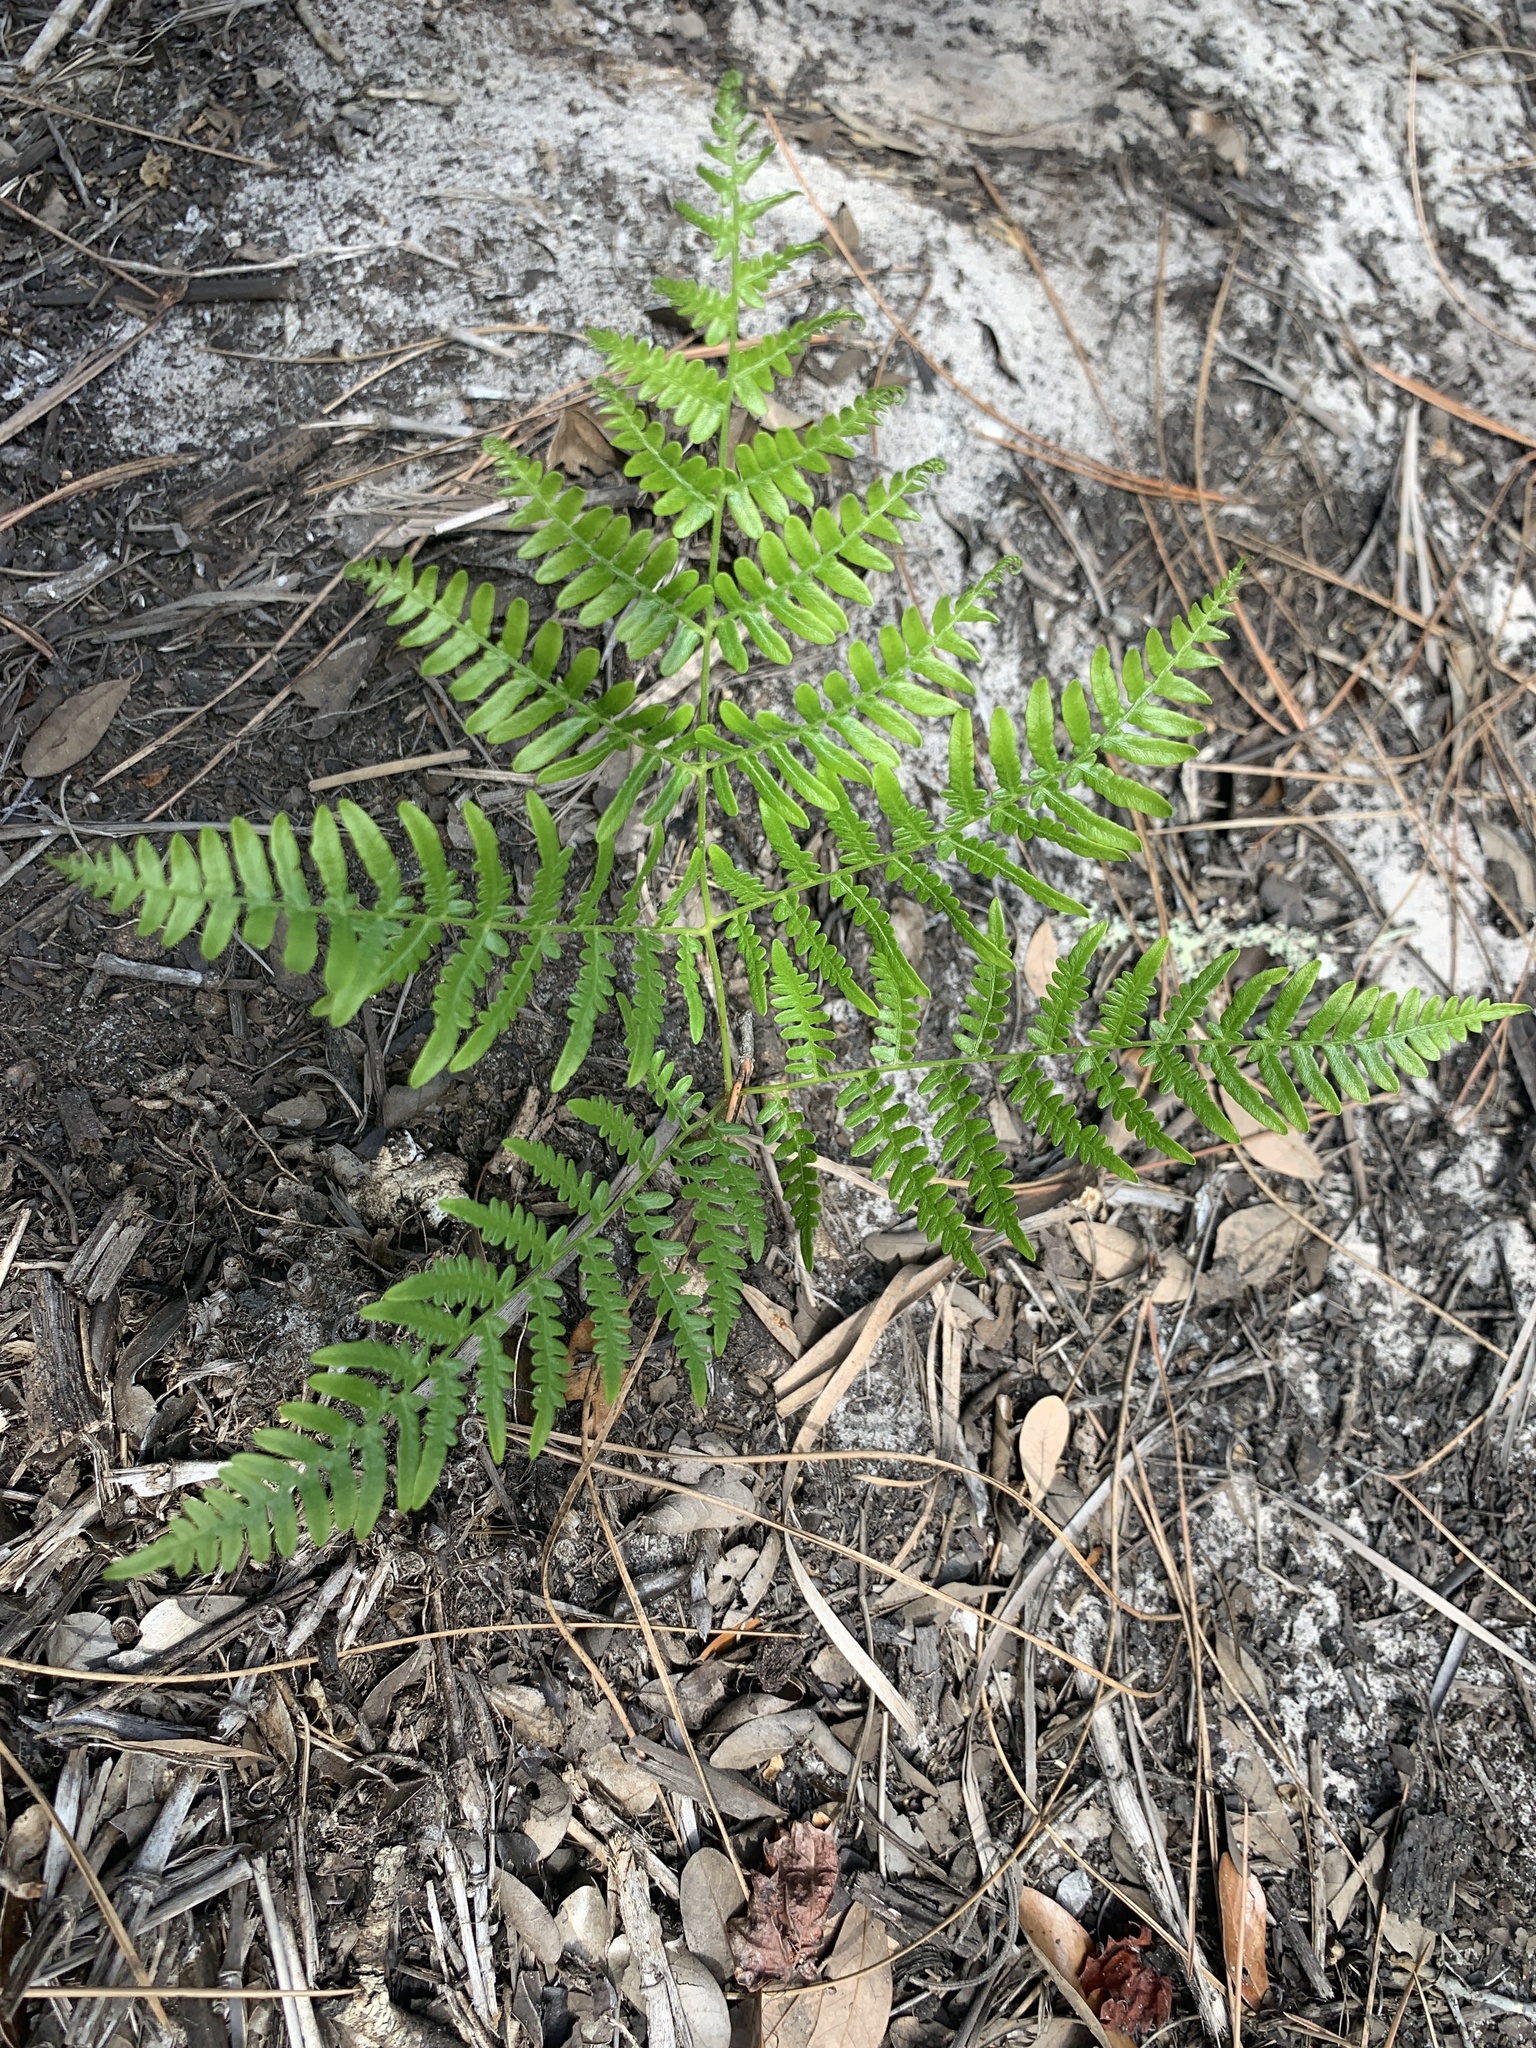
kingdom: Plantae
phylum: Tracheophyta
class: Polypodiopsida
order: Polypodiales
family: Dennstaedtiaceae
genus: Pteridium
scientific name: Pteridium aquilinum
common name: Bracken
